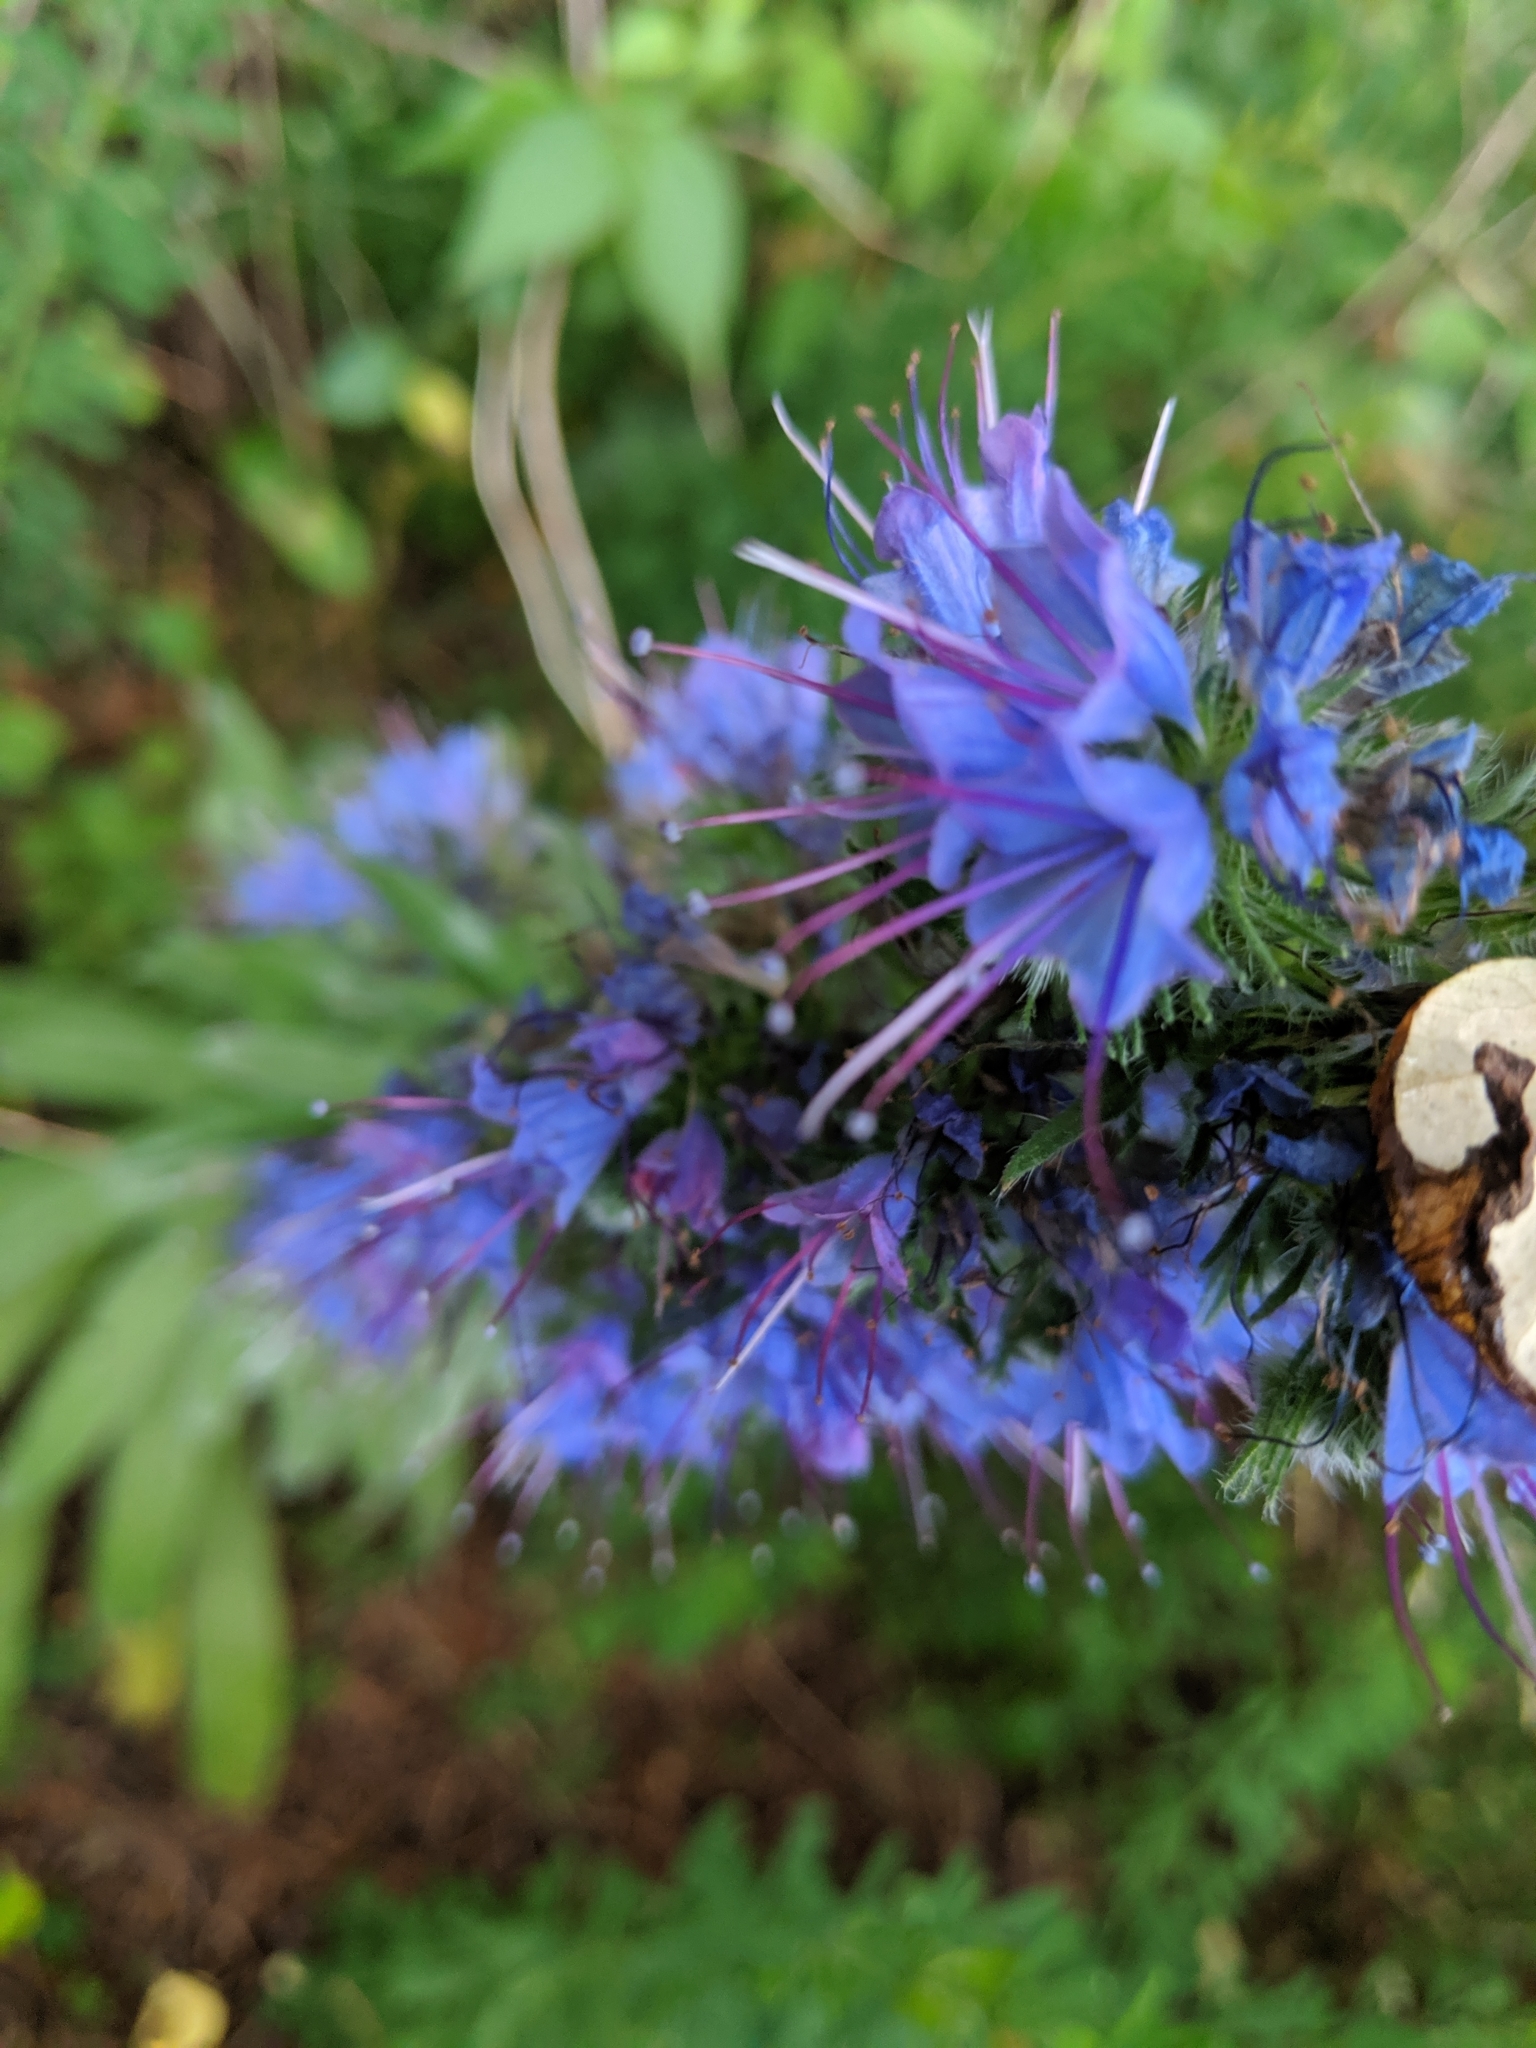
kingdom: Plantae
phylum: Tracheophyta
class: Magnoliopsida
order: Boraginales
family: Boraginaceae
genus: Echium
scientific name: Echium vulgare
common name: Common viper's bugloss
